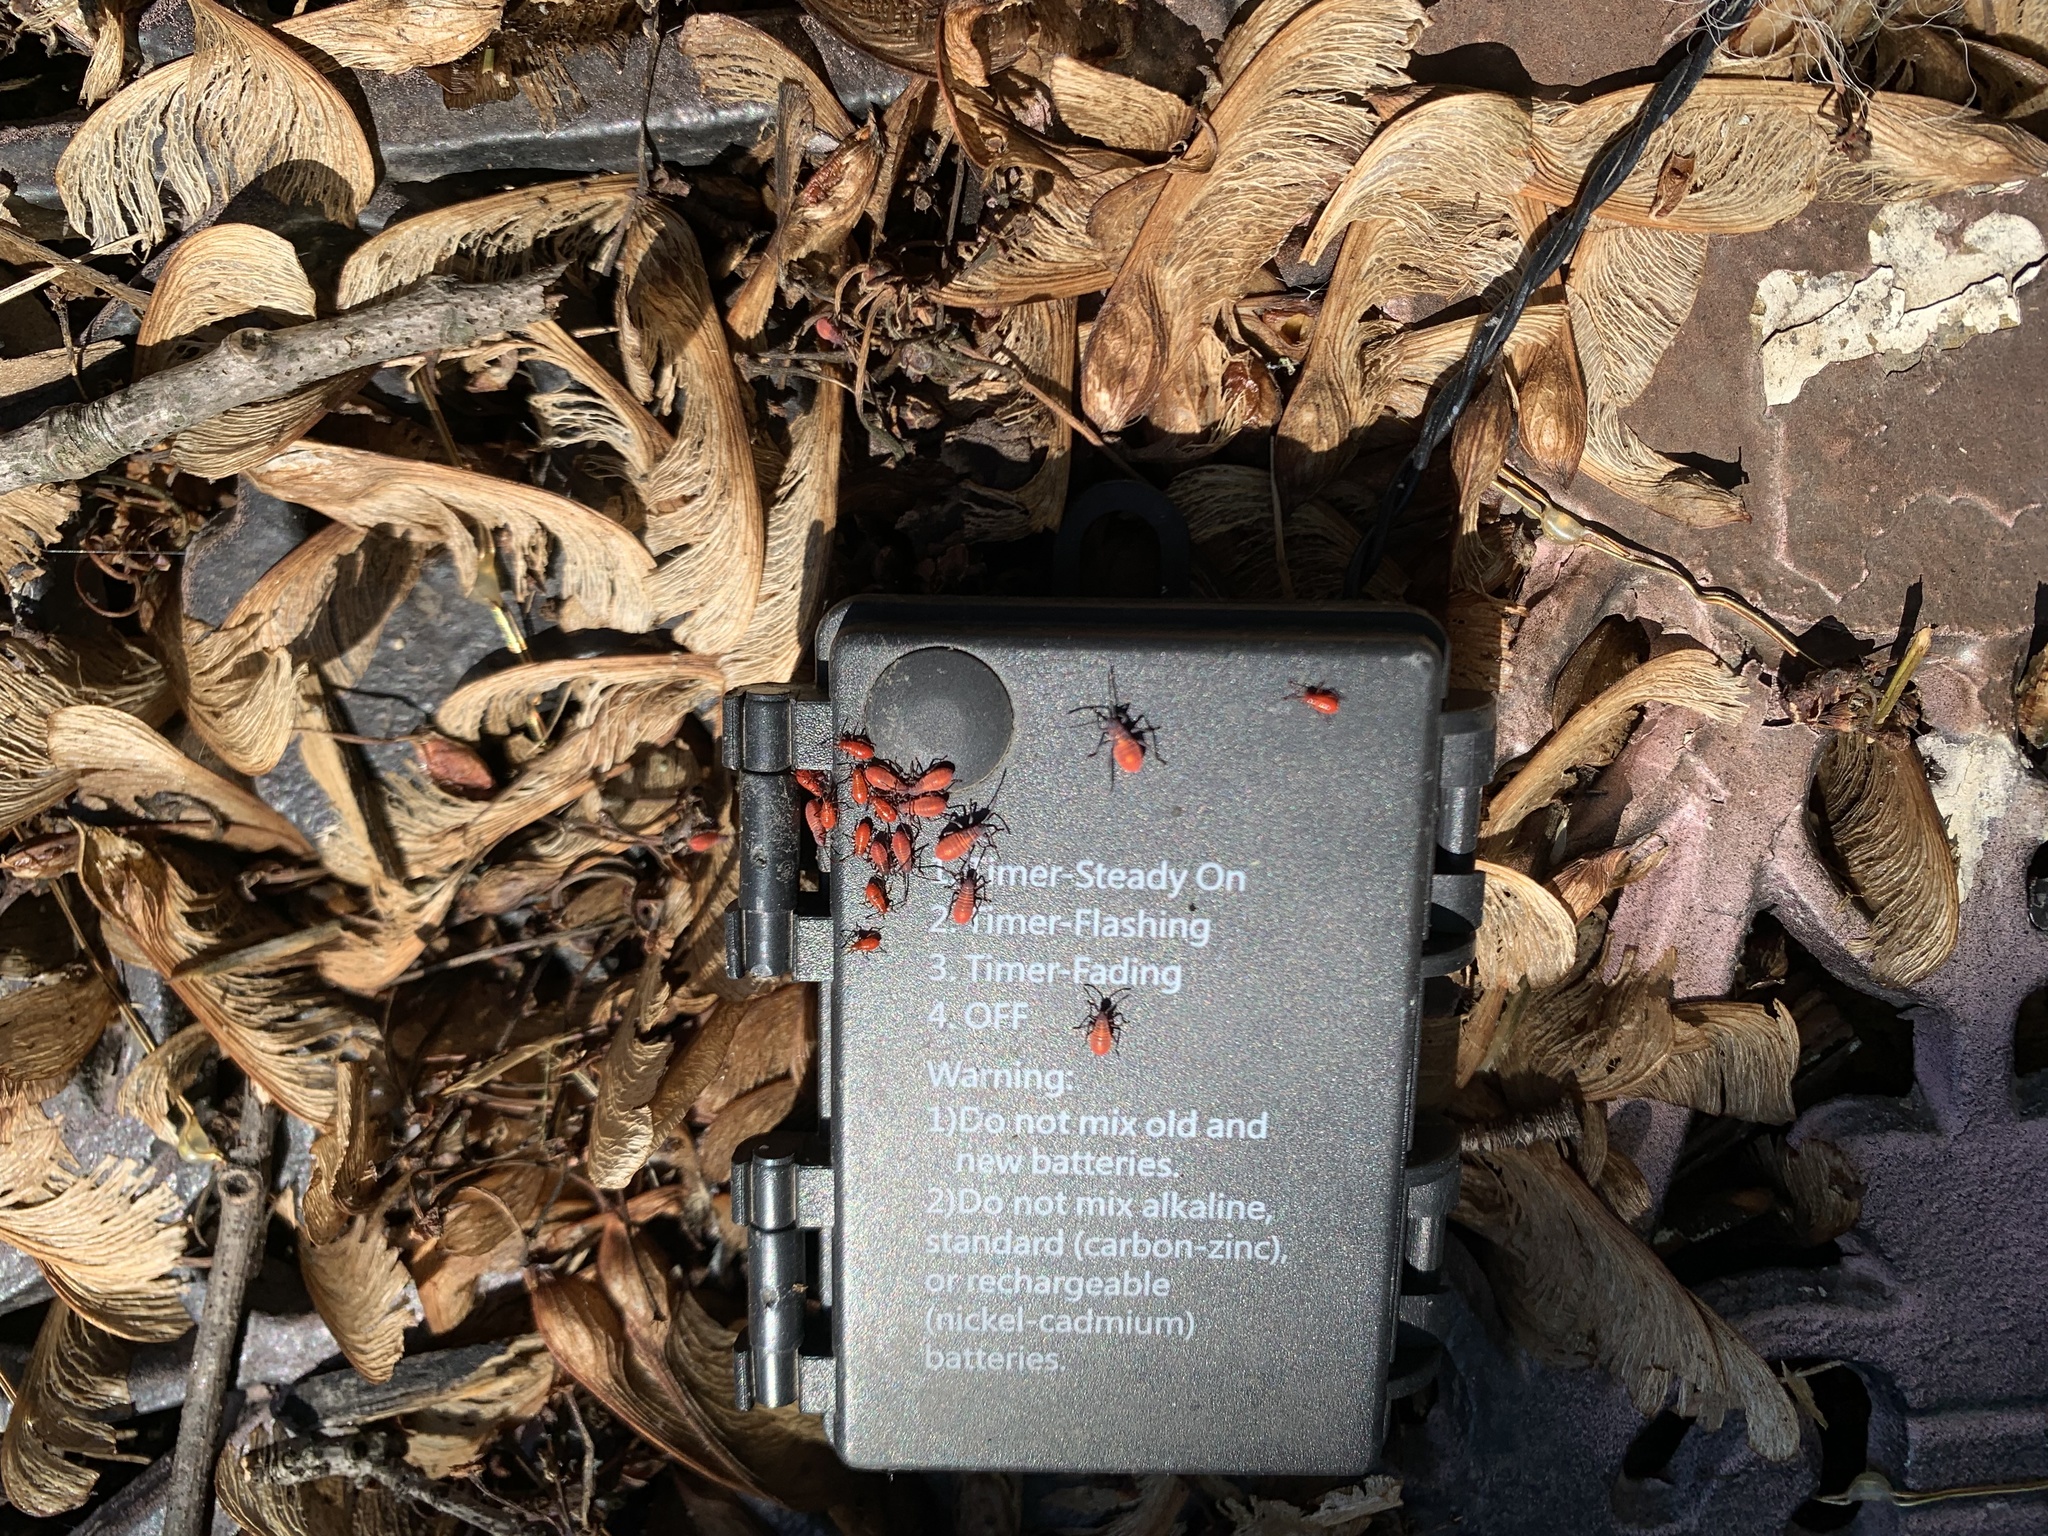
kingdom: Animalia
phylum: Arthropoda
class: Insecta
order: Hemiptera
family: Rhopalidae
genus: Boisea
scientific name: Boisea trivittata
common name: Boxelder bug
